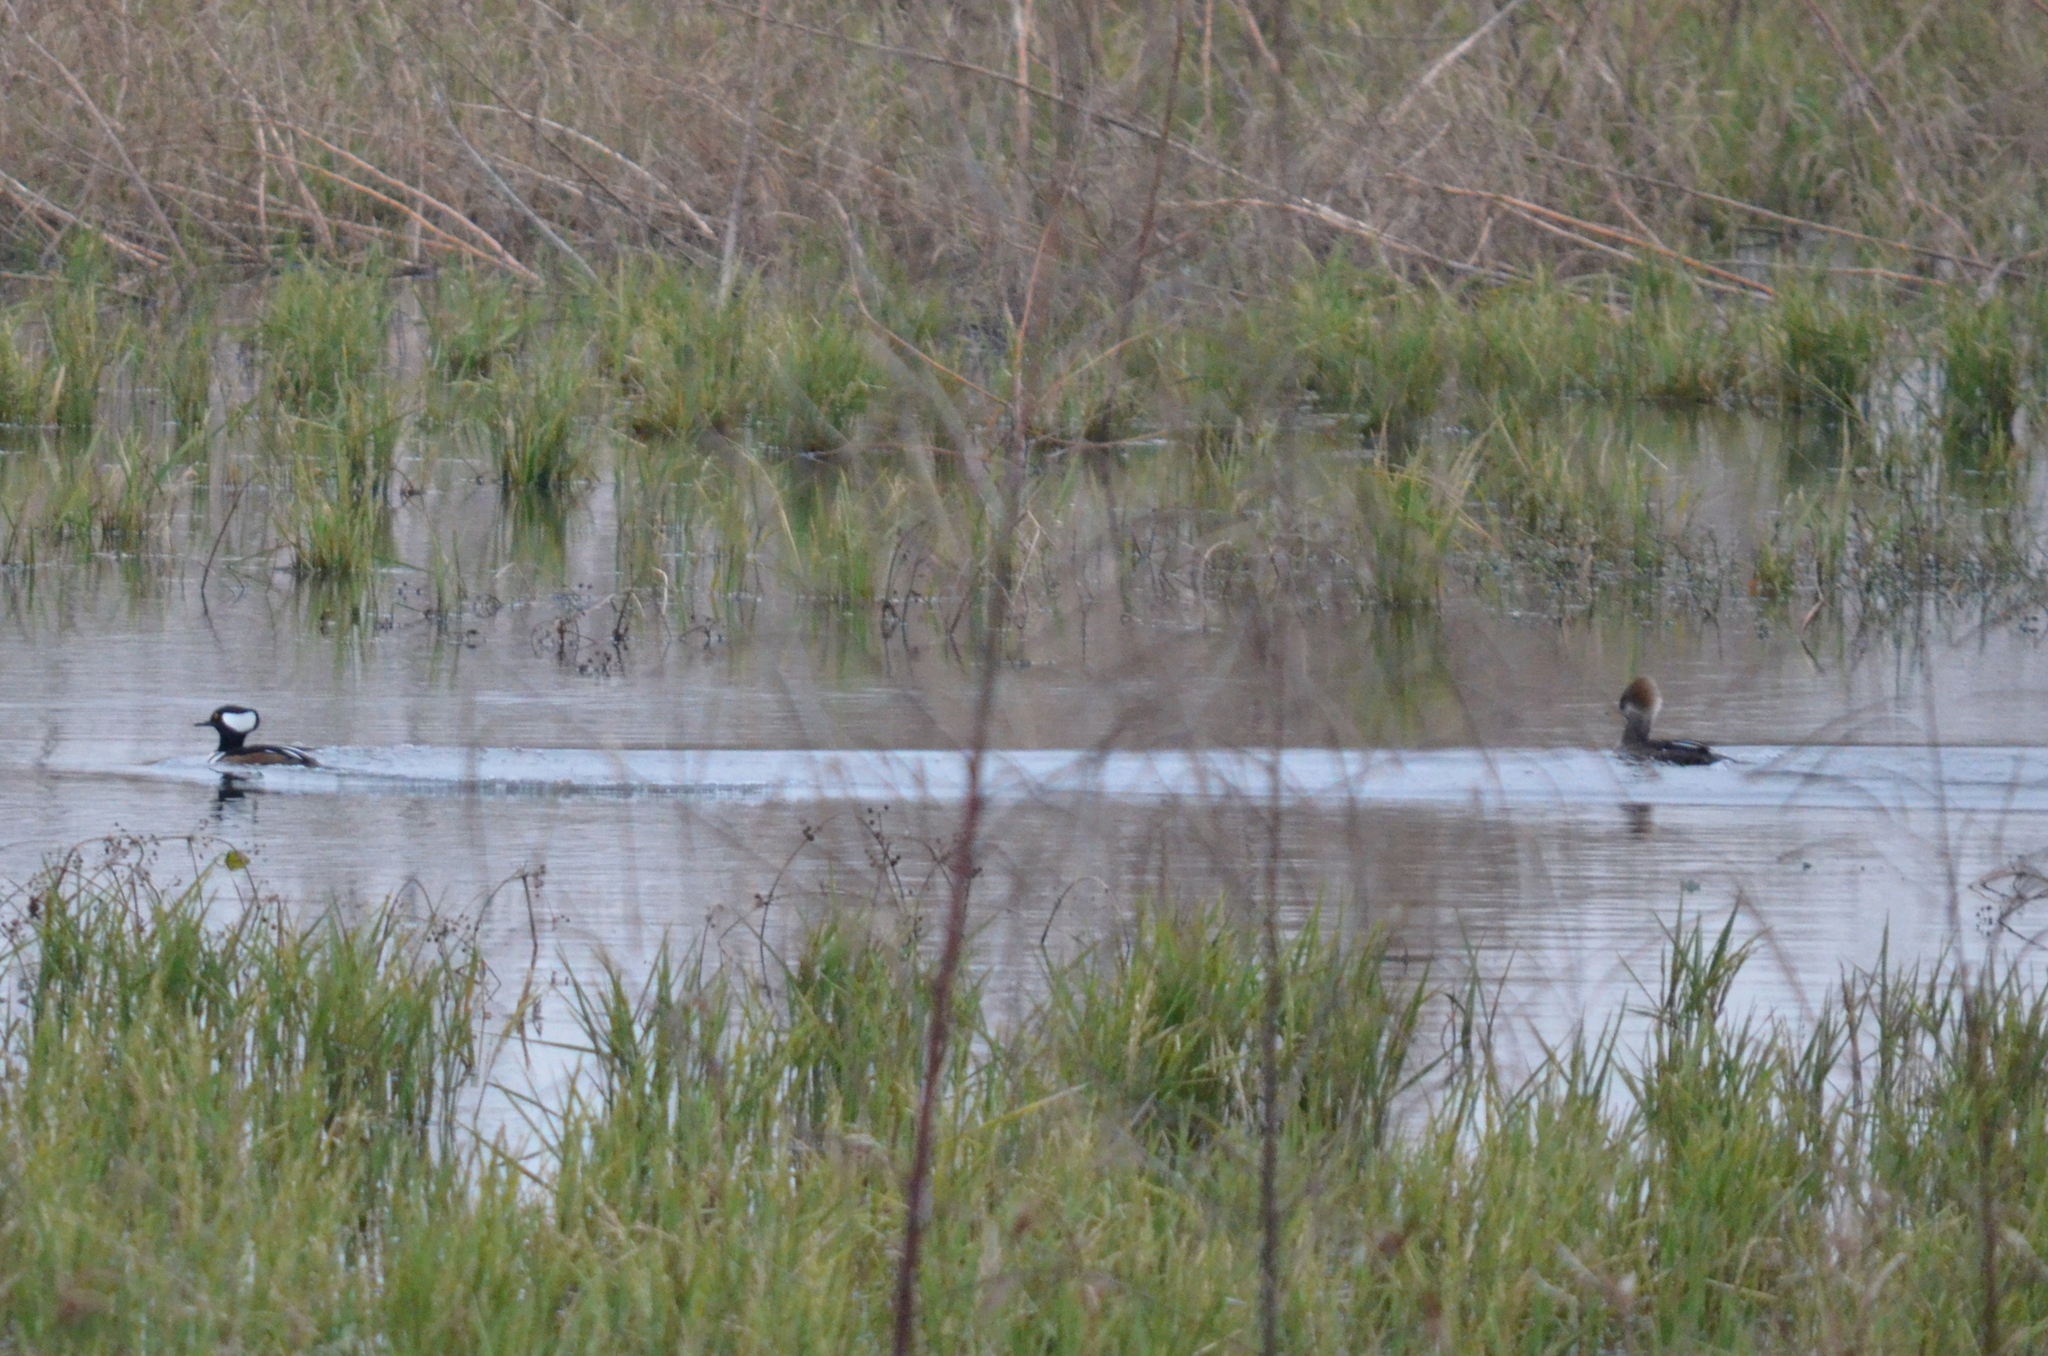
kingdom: Animalia
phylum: Chordata
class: Aves
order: Anseriformes
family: Anatidae
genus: Lophodytes
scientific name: Lophodytes cucullatus
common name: Hooded merganser
